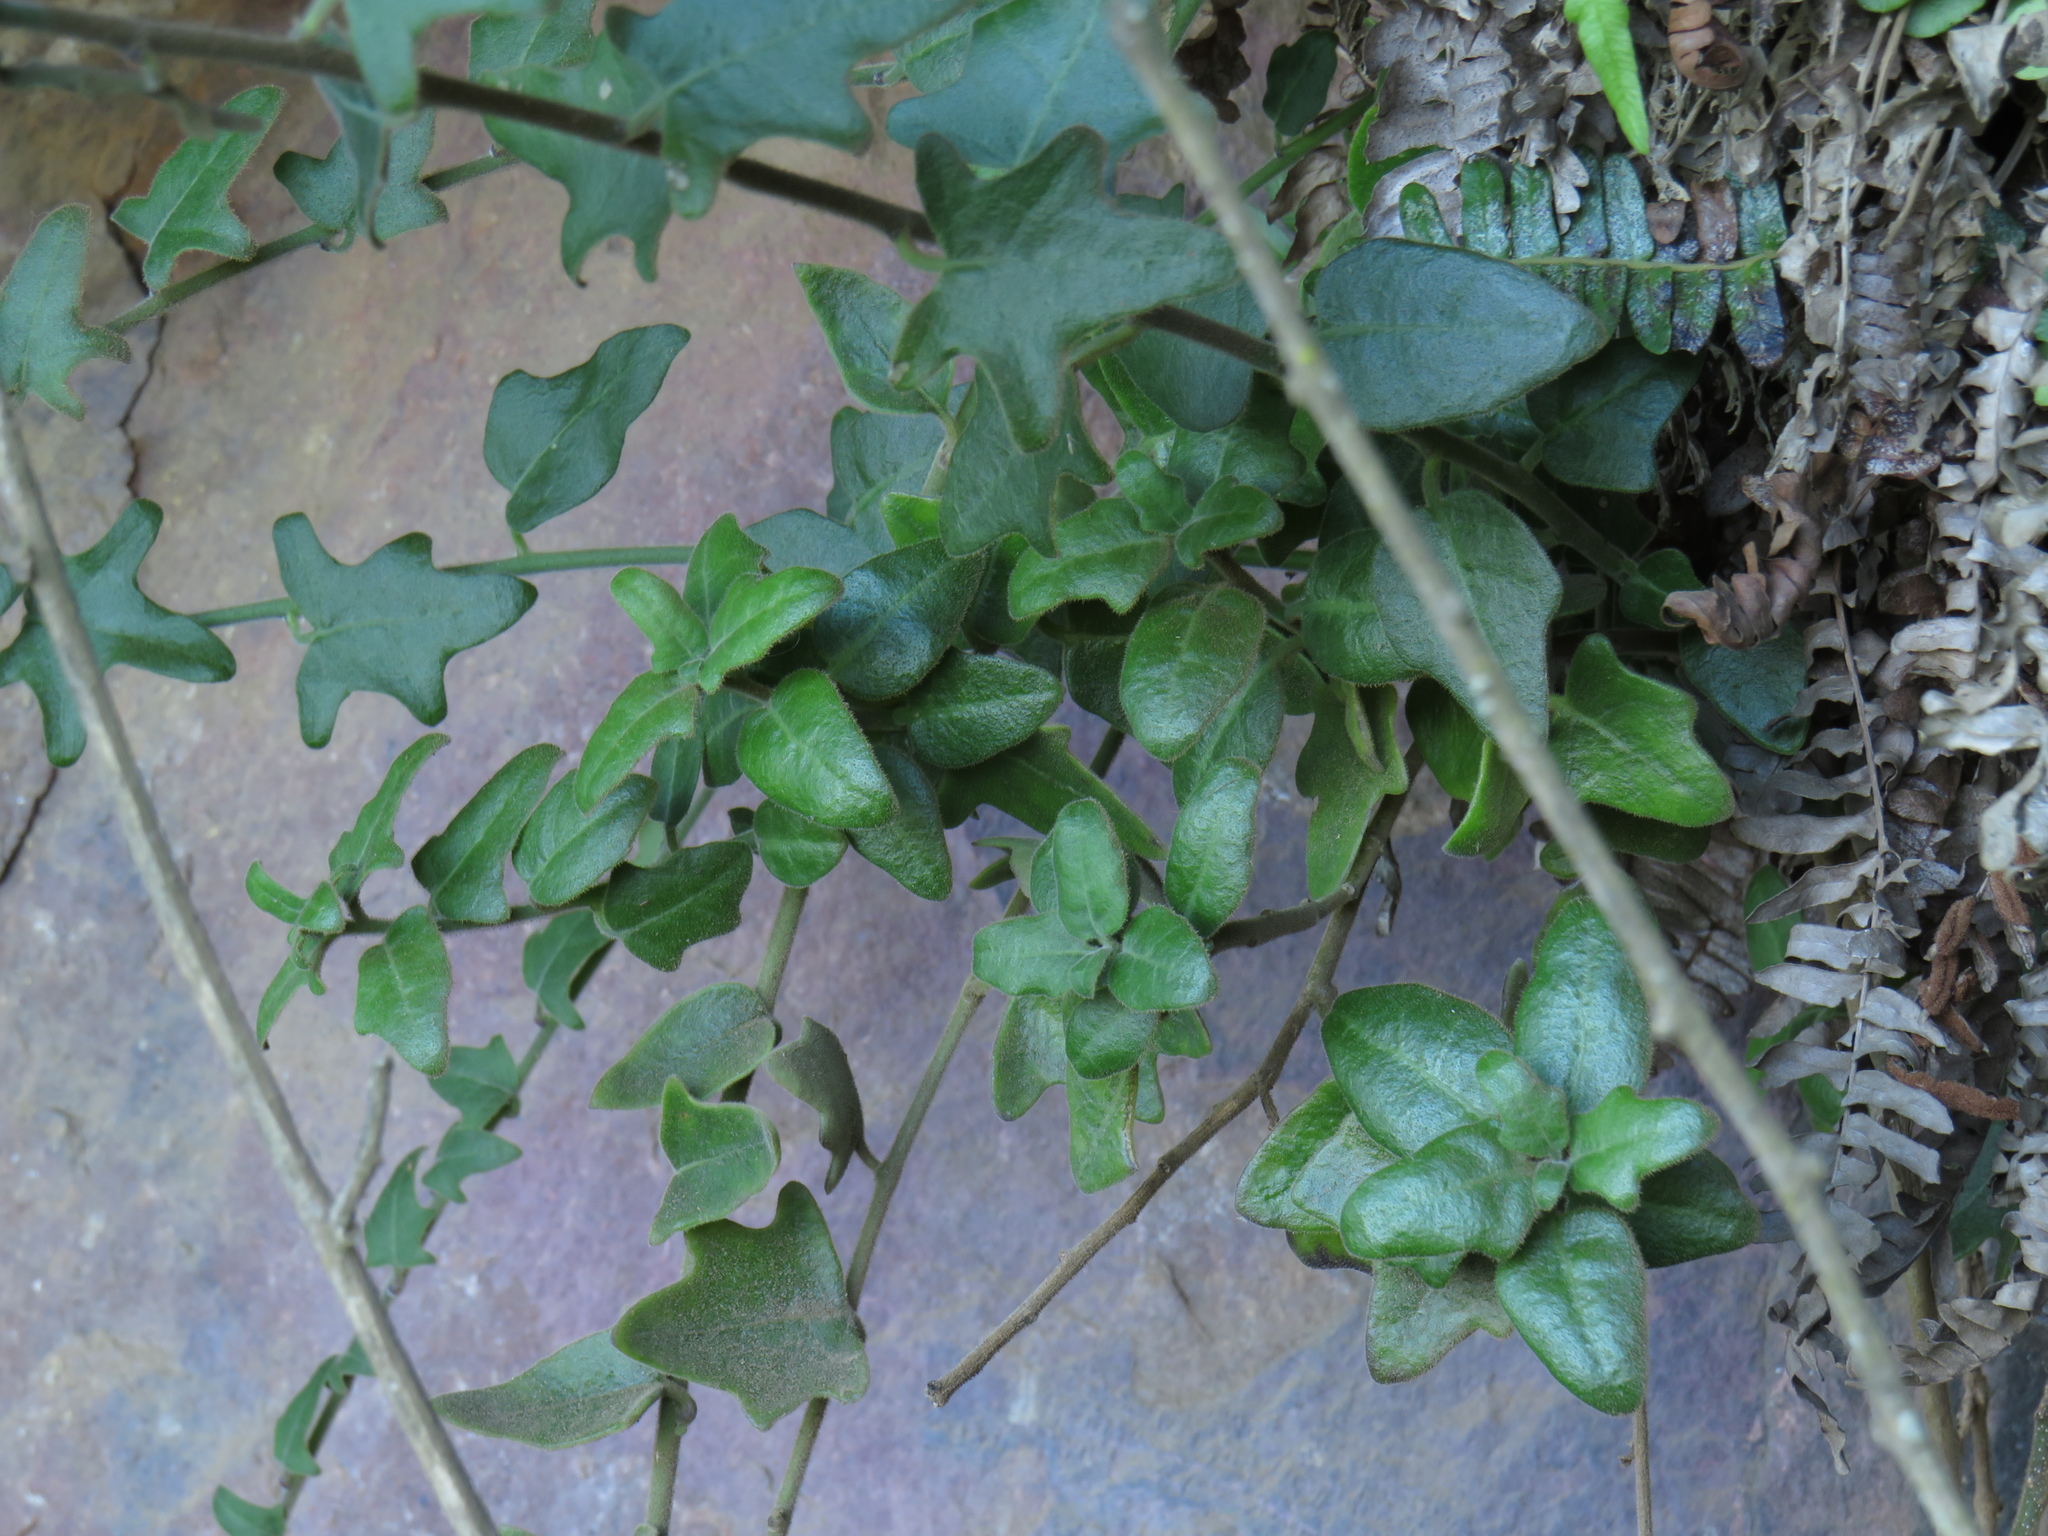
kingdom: Plantae
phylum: Tracheophyta
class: Magnoliopsida
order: Solanales
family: Solanaceae
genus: Solanum
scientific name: Solanum africanum
